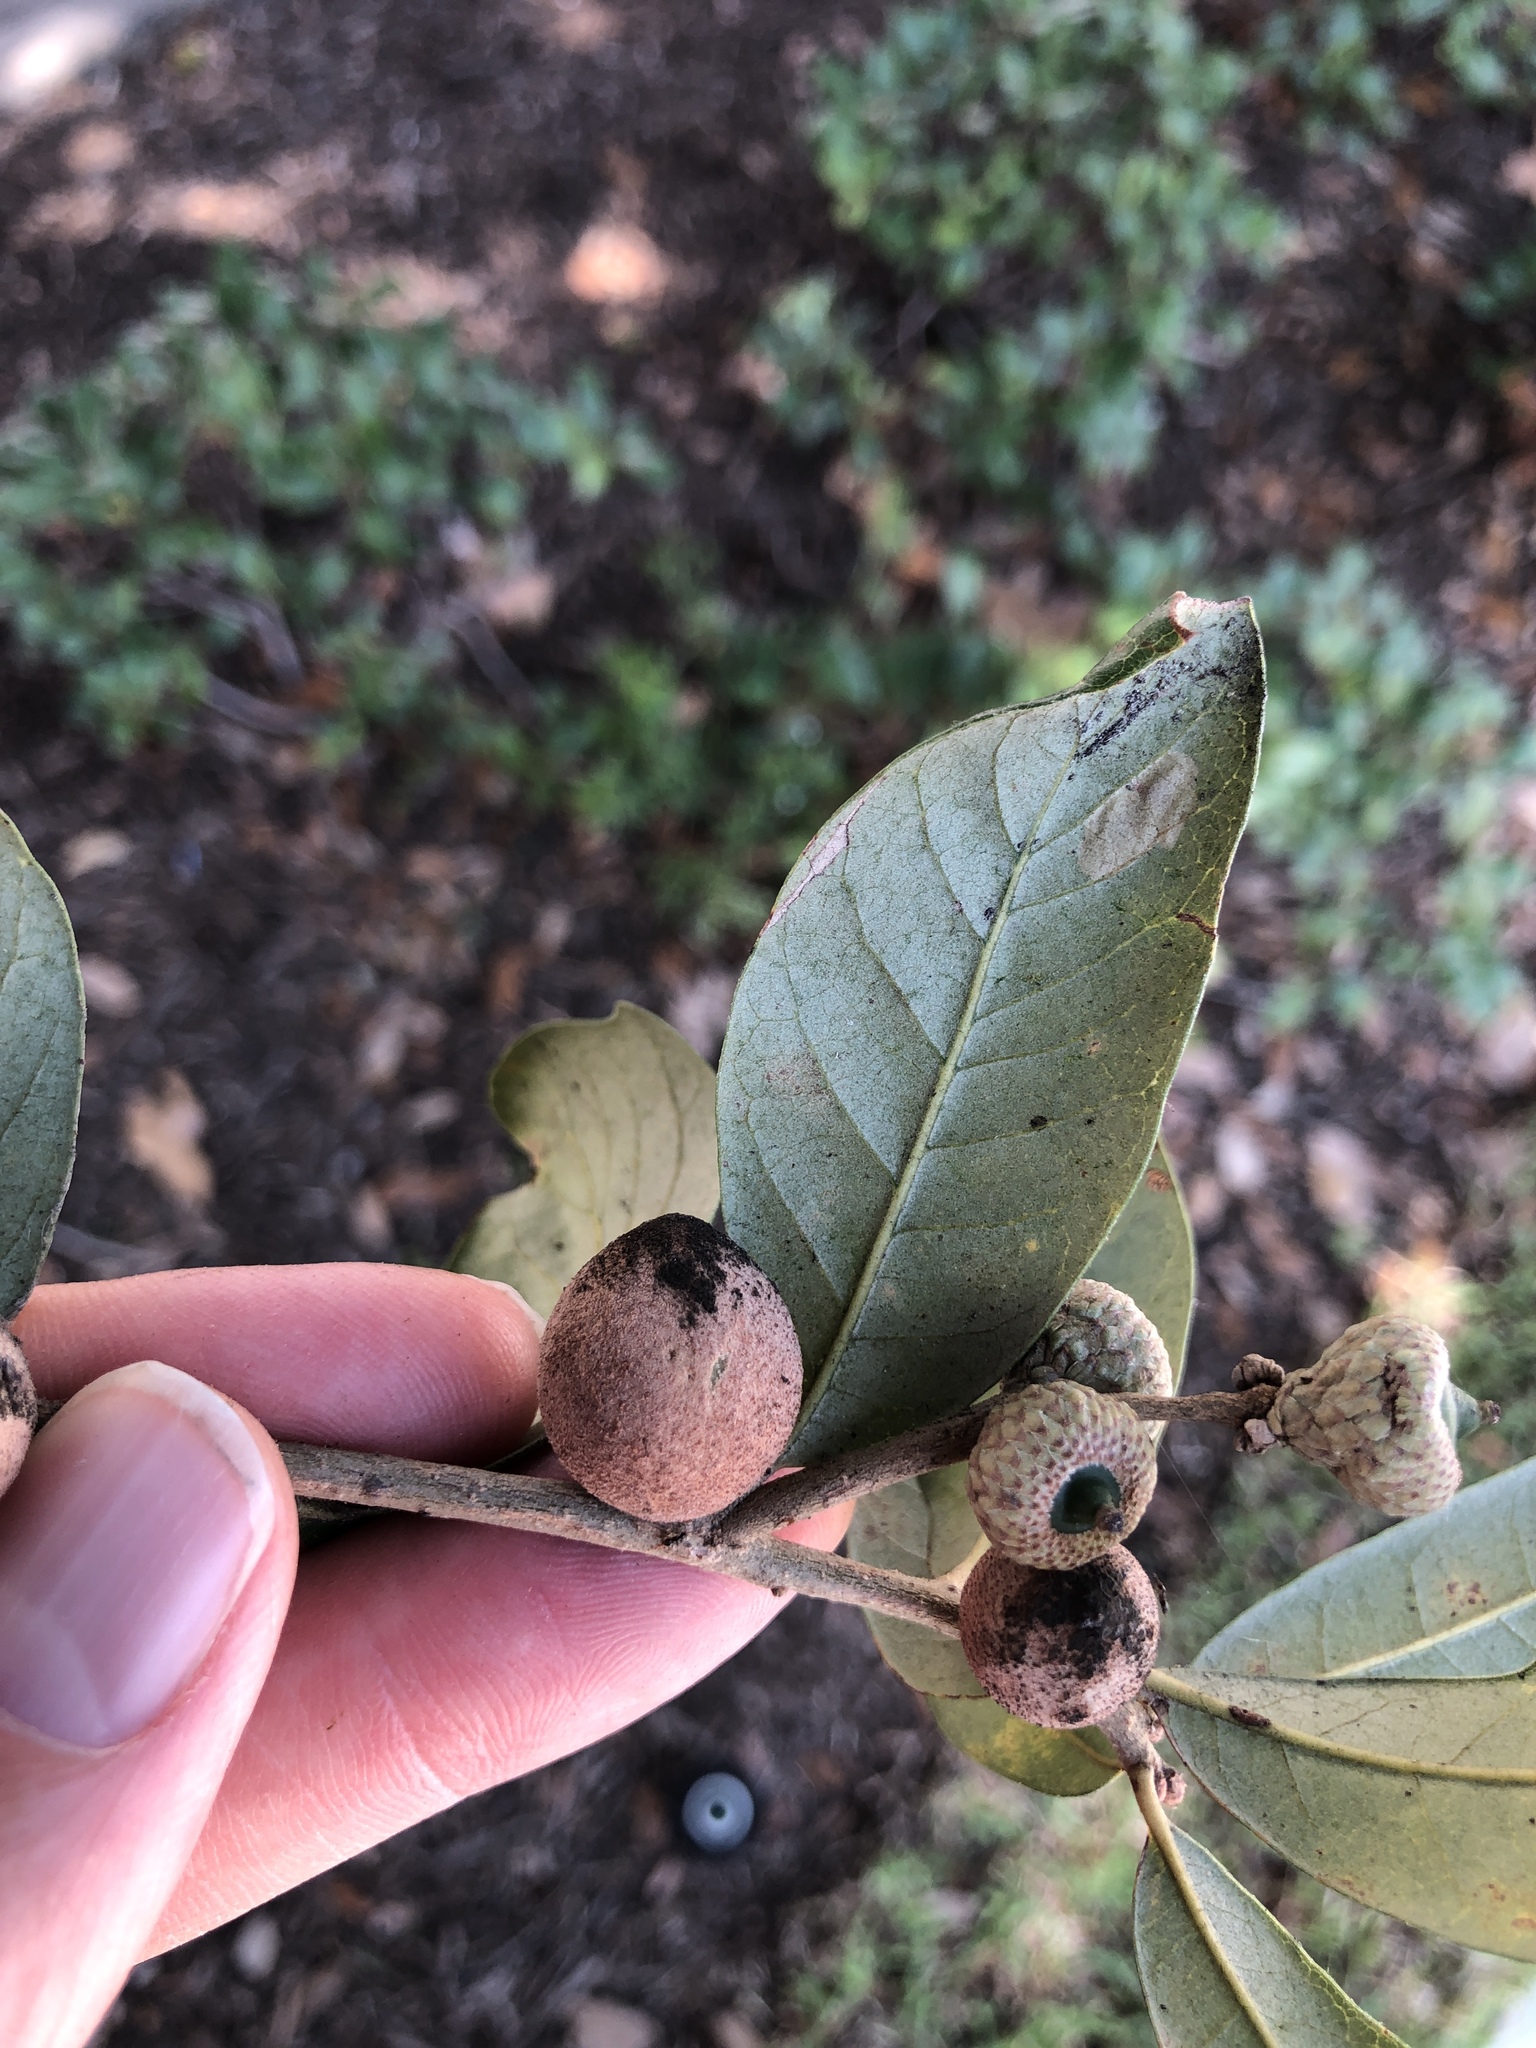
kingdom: Animalia
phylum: Arthropoda
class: Insecta
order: Hymenoptera
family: Cynipidae
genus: Disholcaspis
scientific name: Disholcaspis
